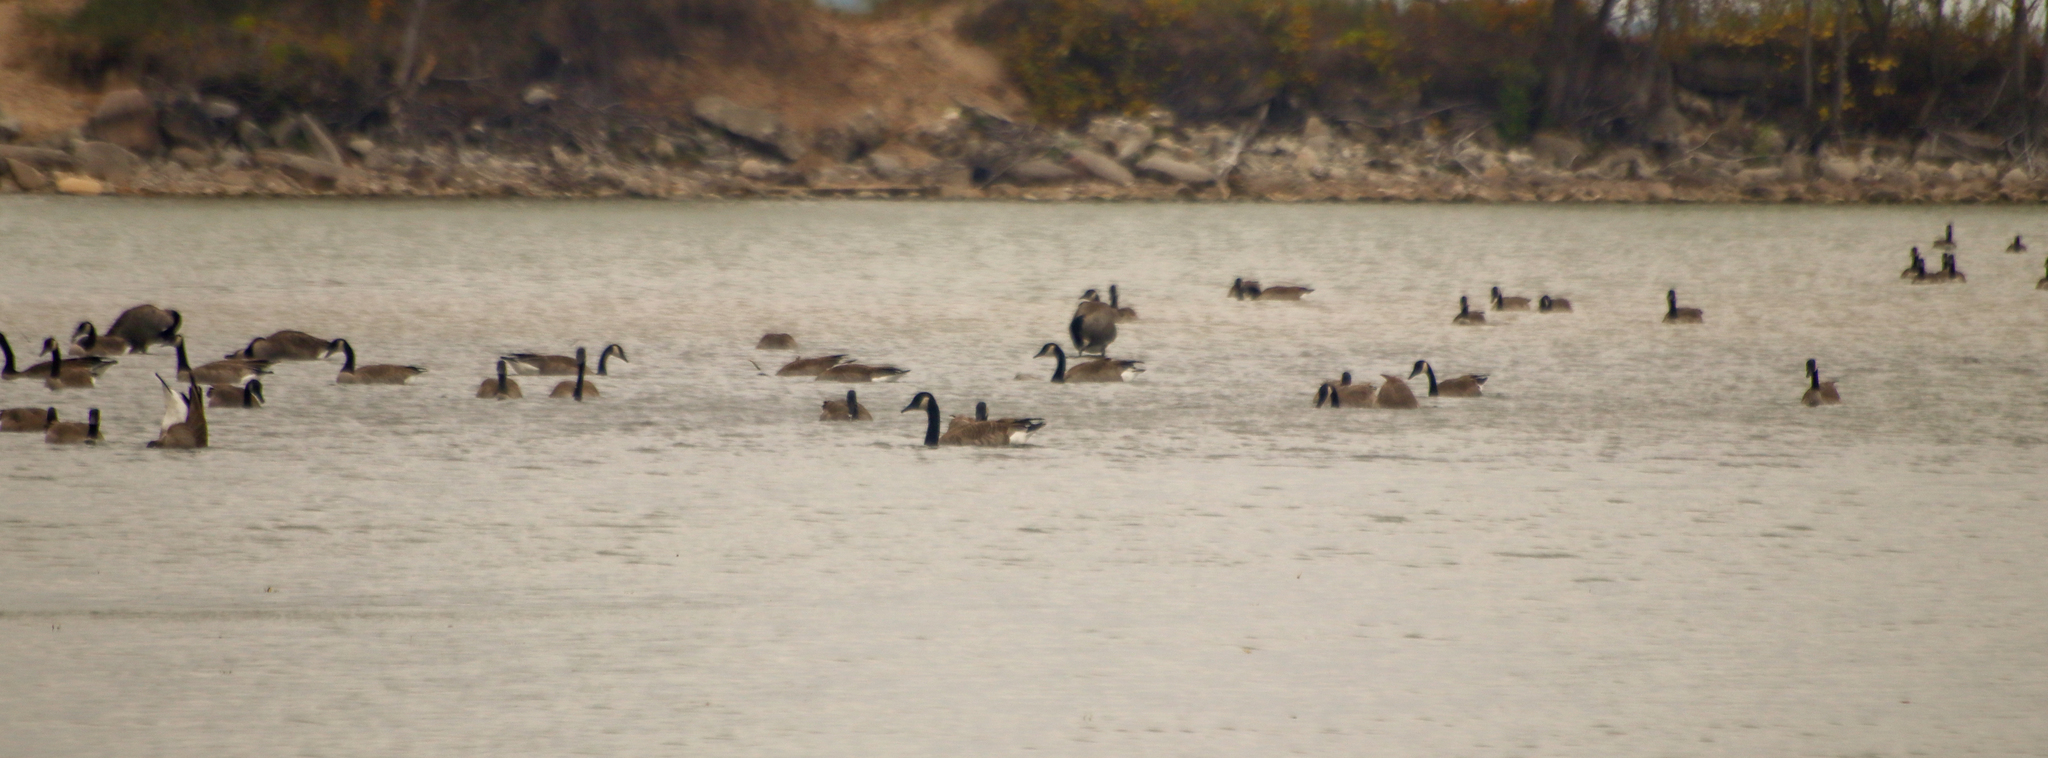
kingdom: Animalia
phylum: Chordata
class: Aves
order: Anseriformes
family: Anatidae
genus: Branta
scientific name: Branta canadensis
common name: Canada goose
